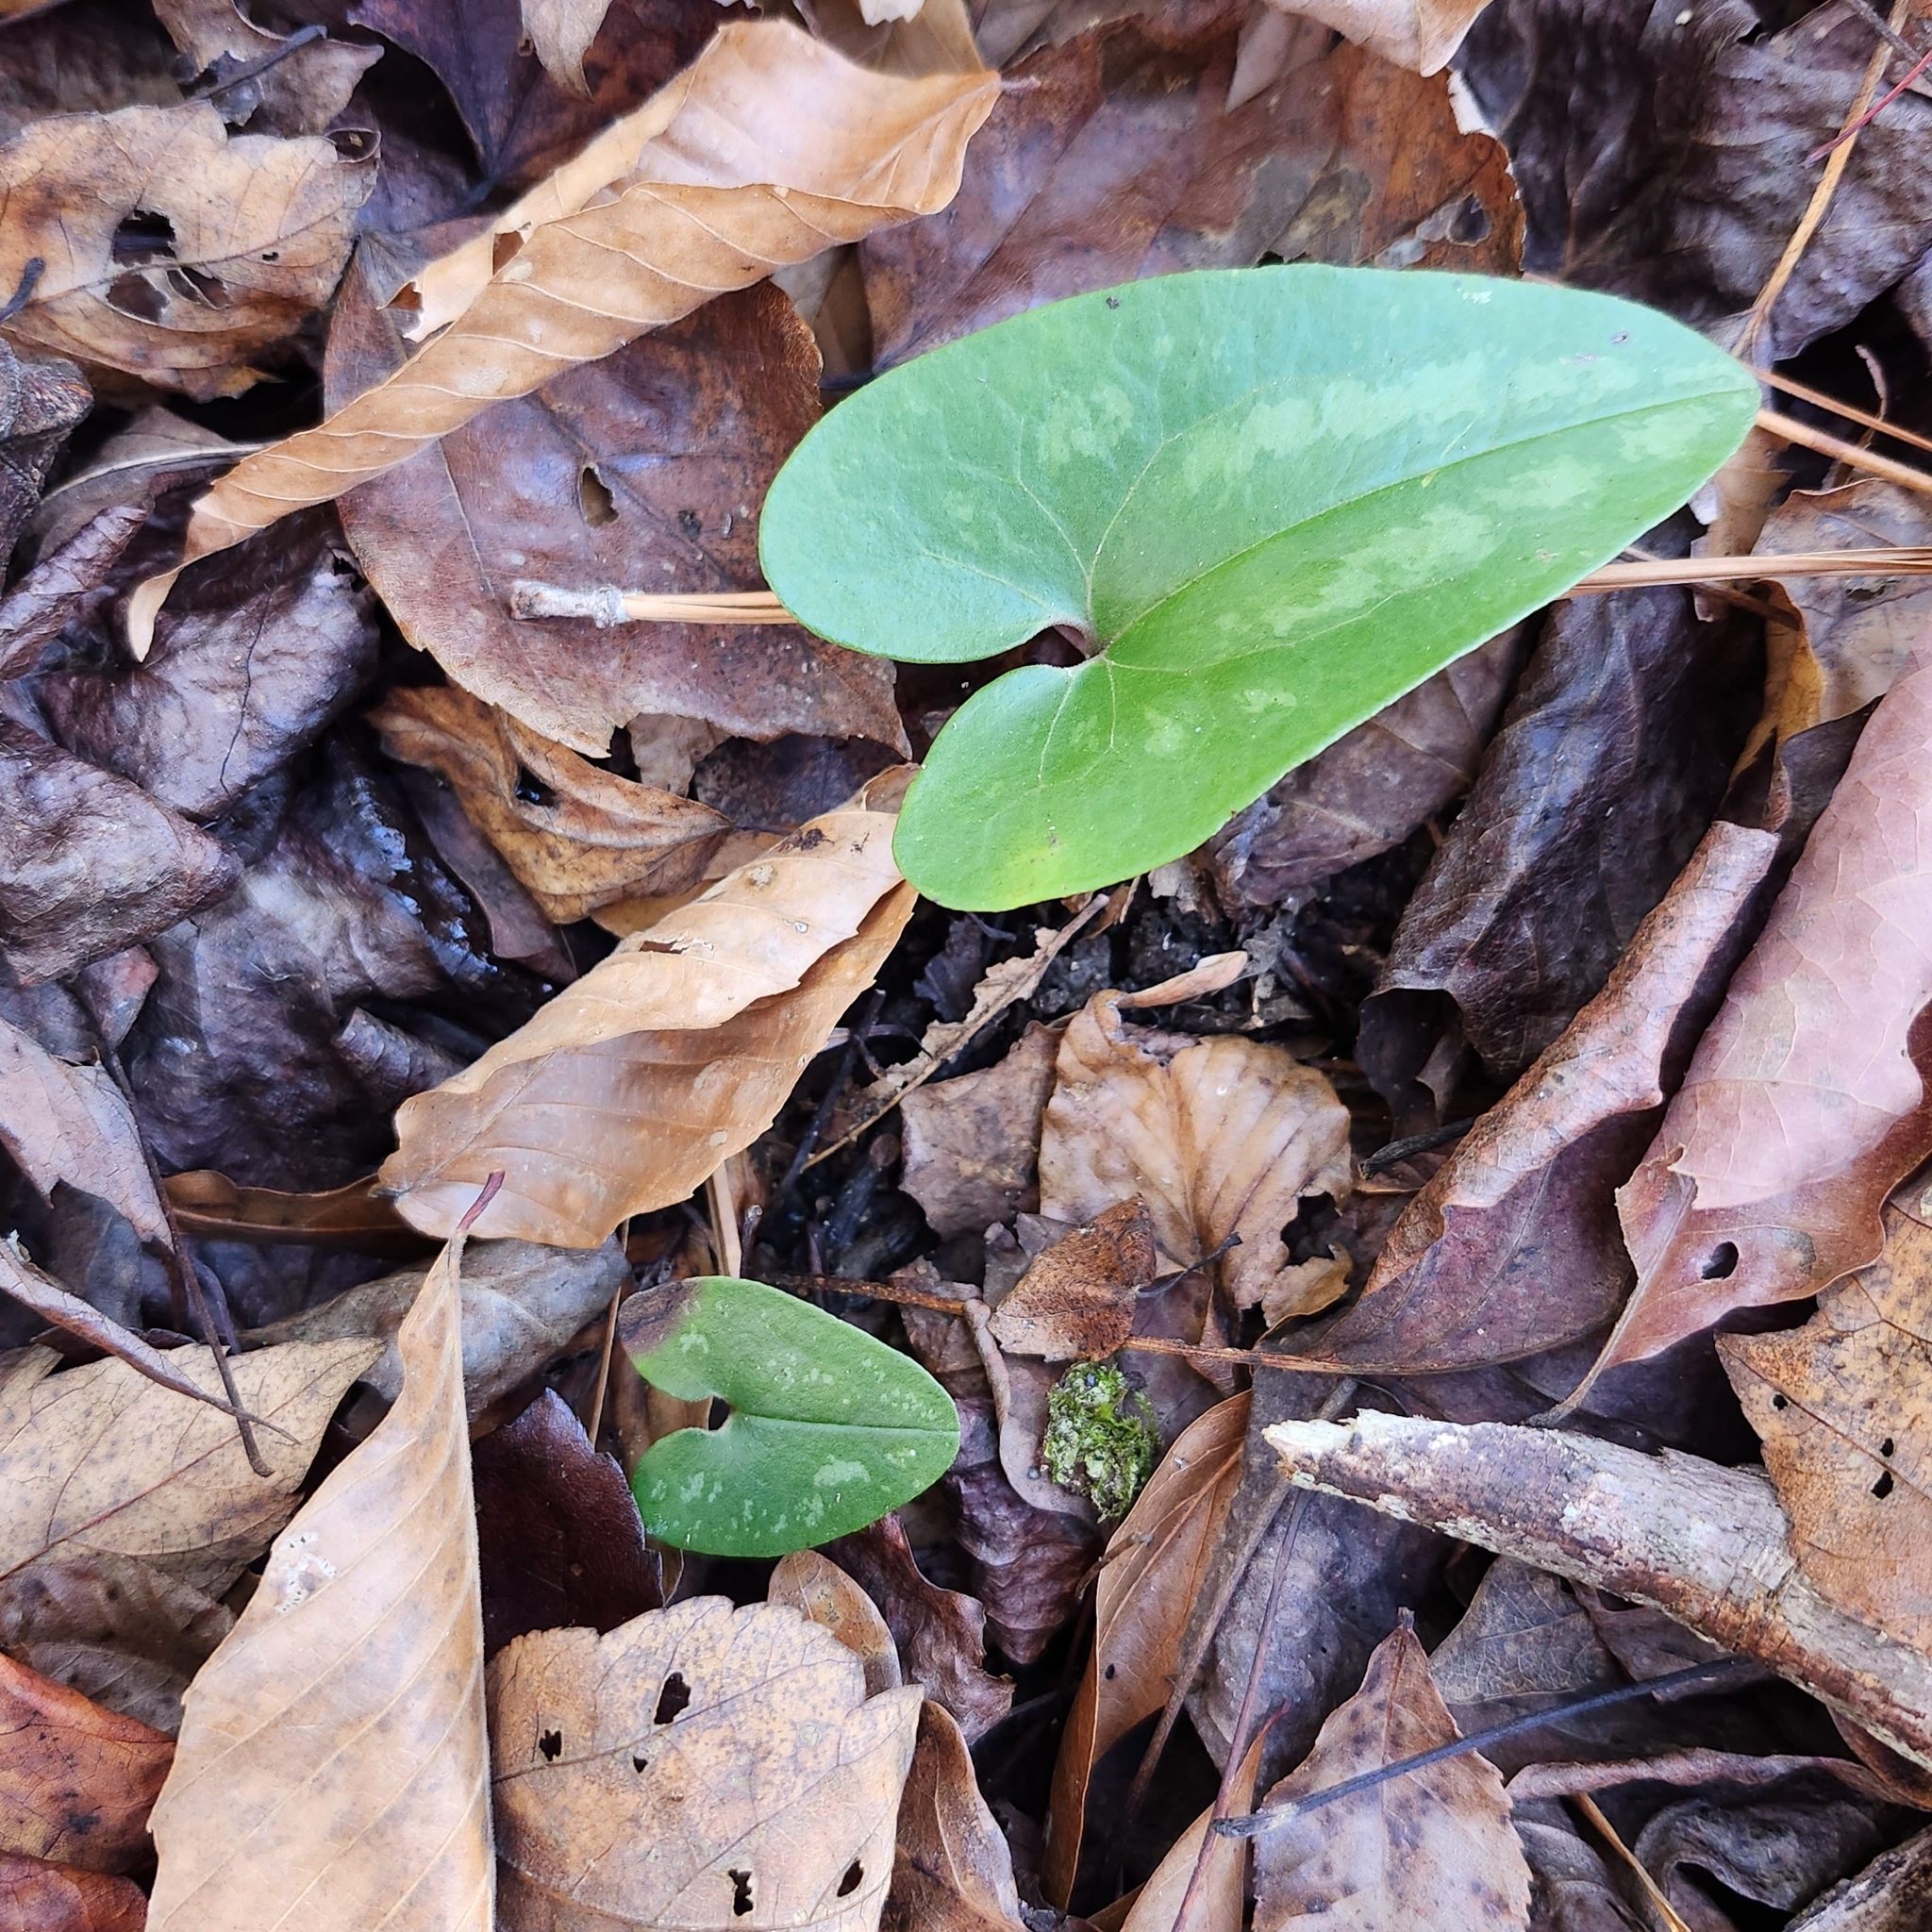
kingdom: Plantae
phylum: Tracheophyta
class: Magnoliopsida
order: Piperales
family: Aristolochiaceae
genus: Hexastylis
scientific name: Hexastylis arifolia
